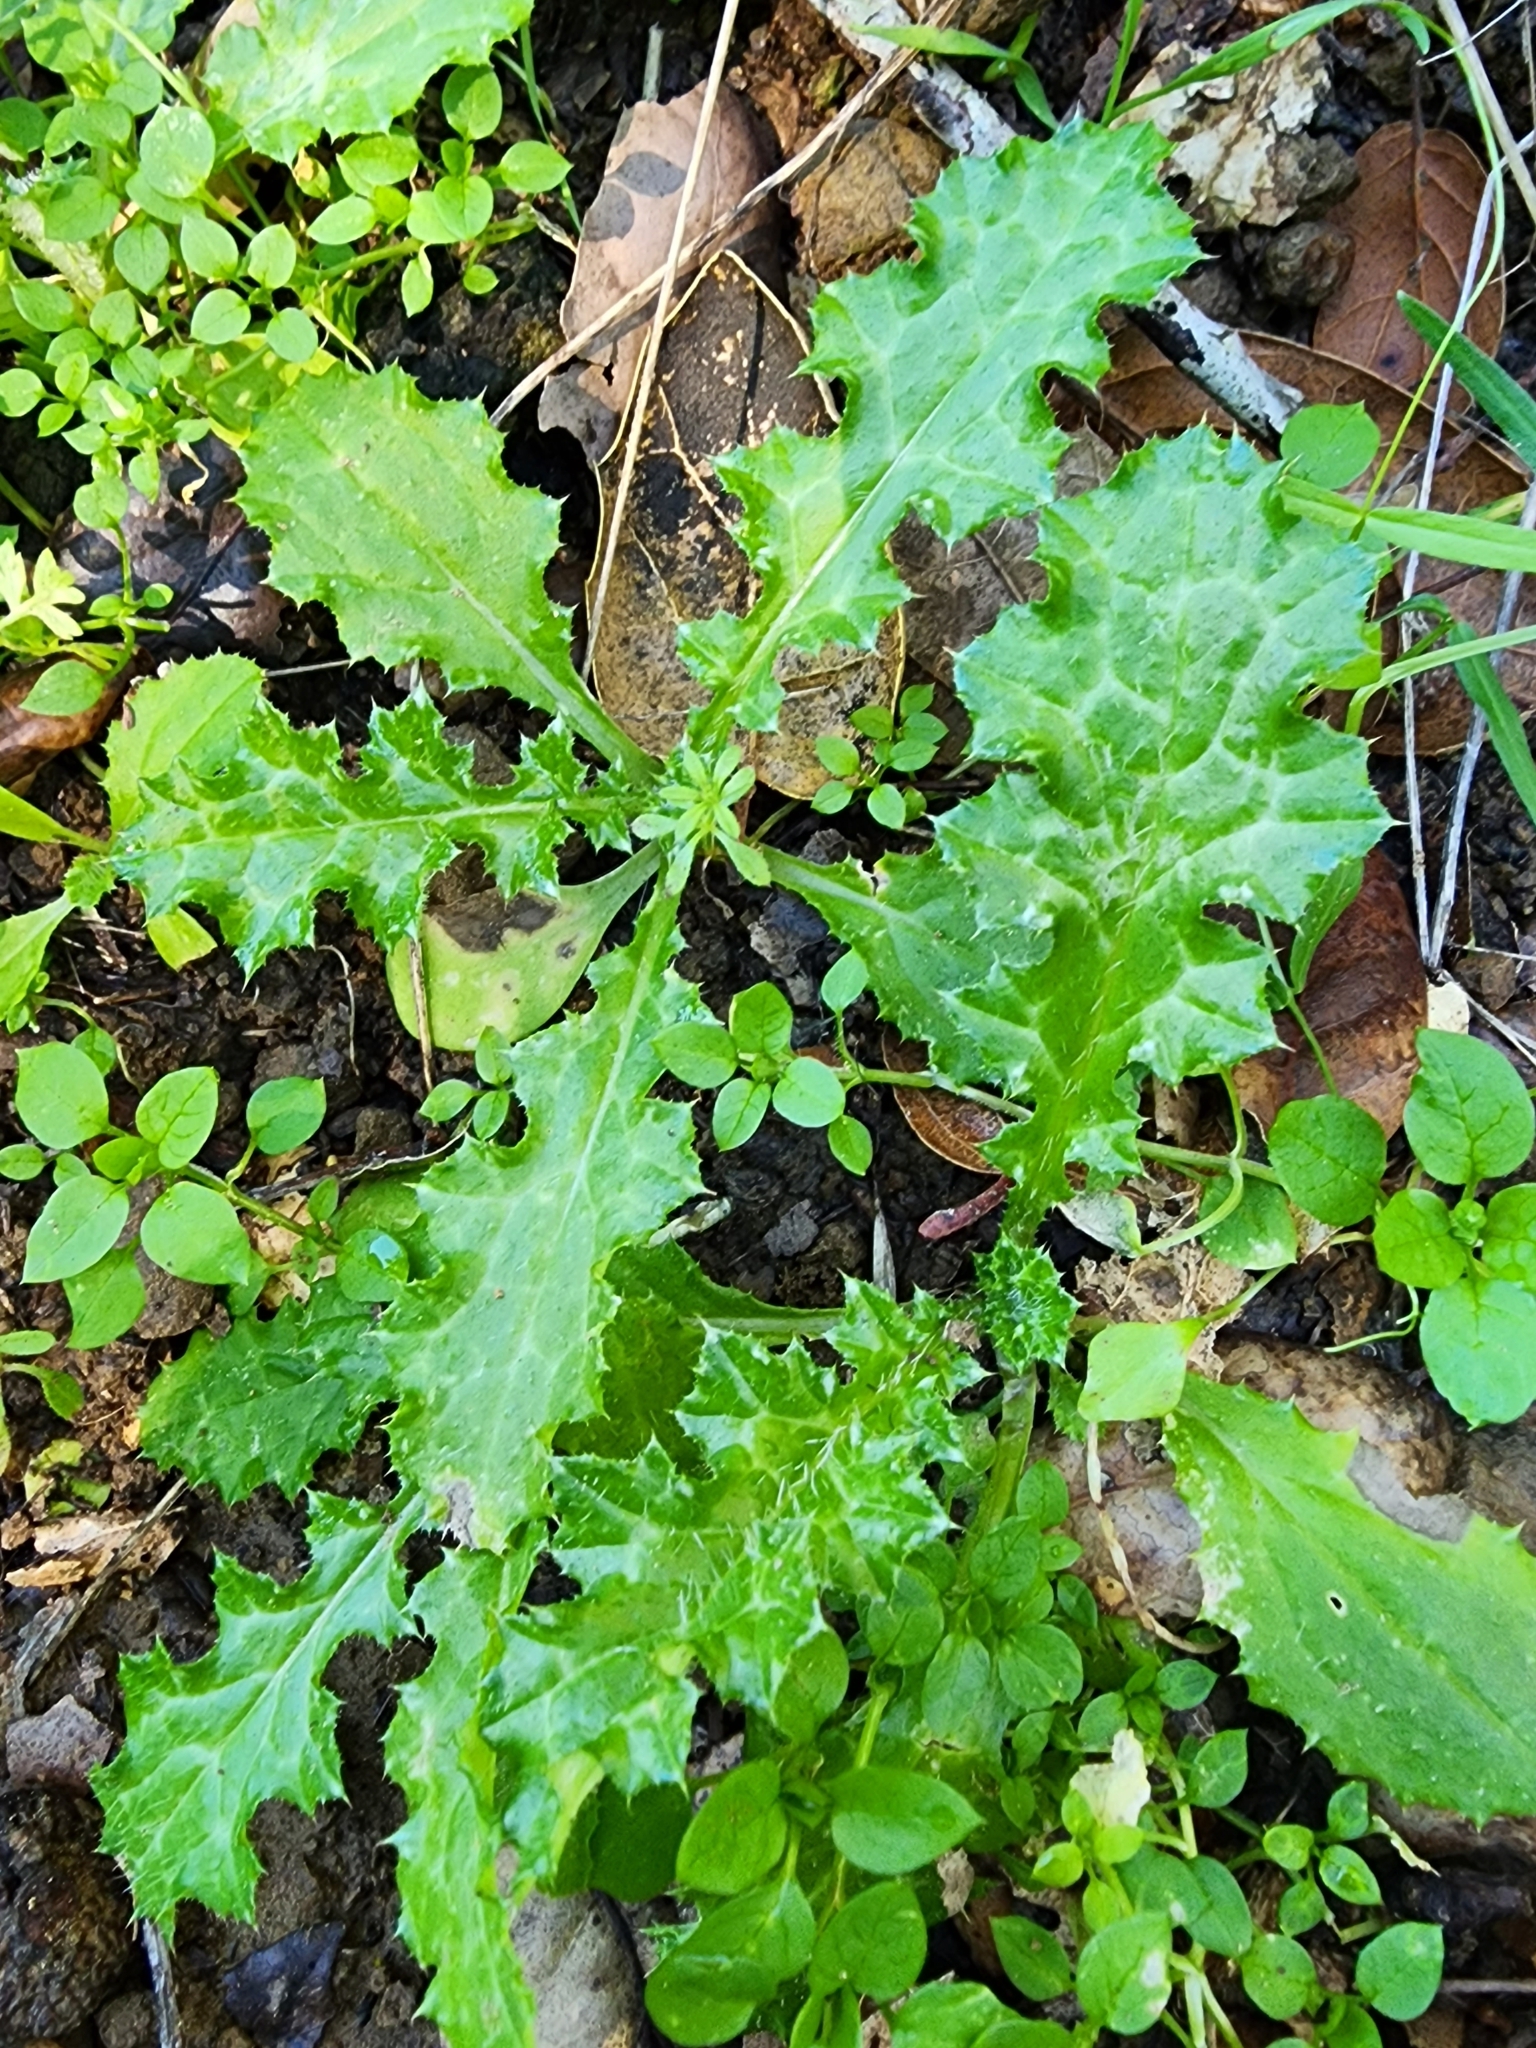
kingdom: Plantae
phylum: Tracheophyta
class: Magnoliopsida
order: Asterales
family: Asteraceae
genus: Carduus
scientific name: Carduus pycnocephalus
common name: Plymouth thistle
